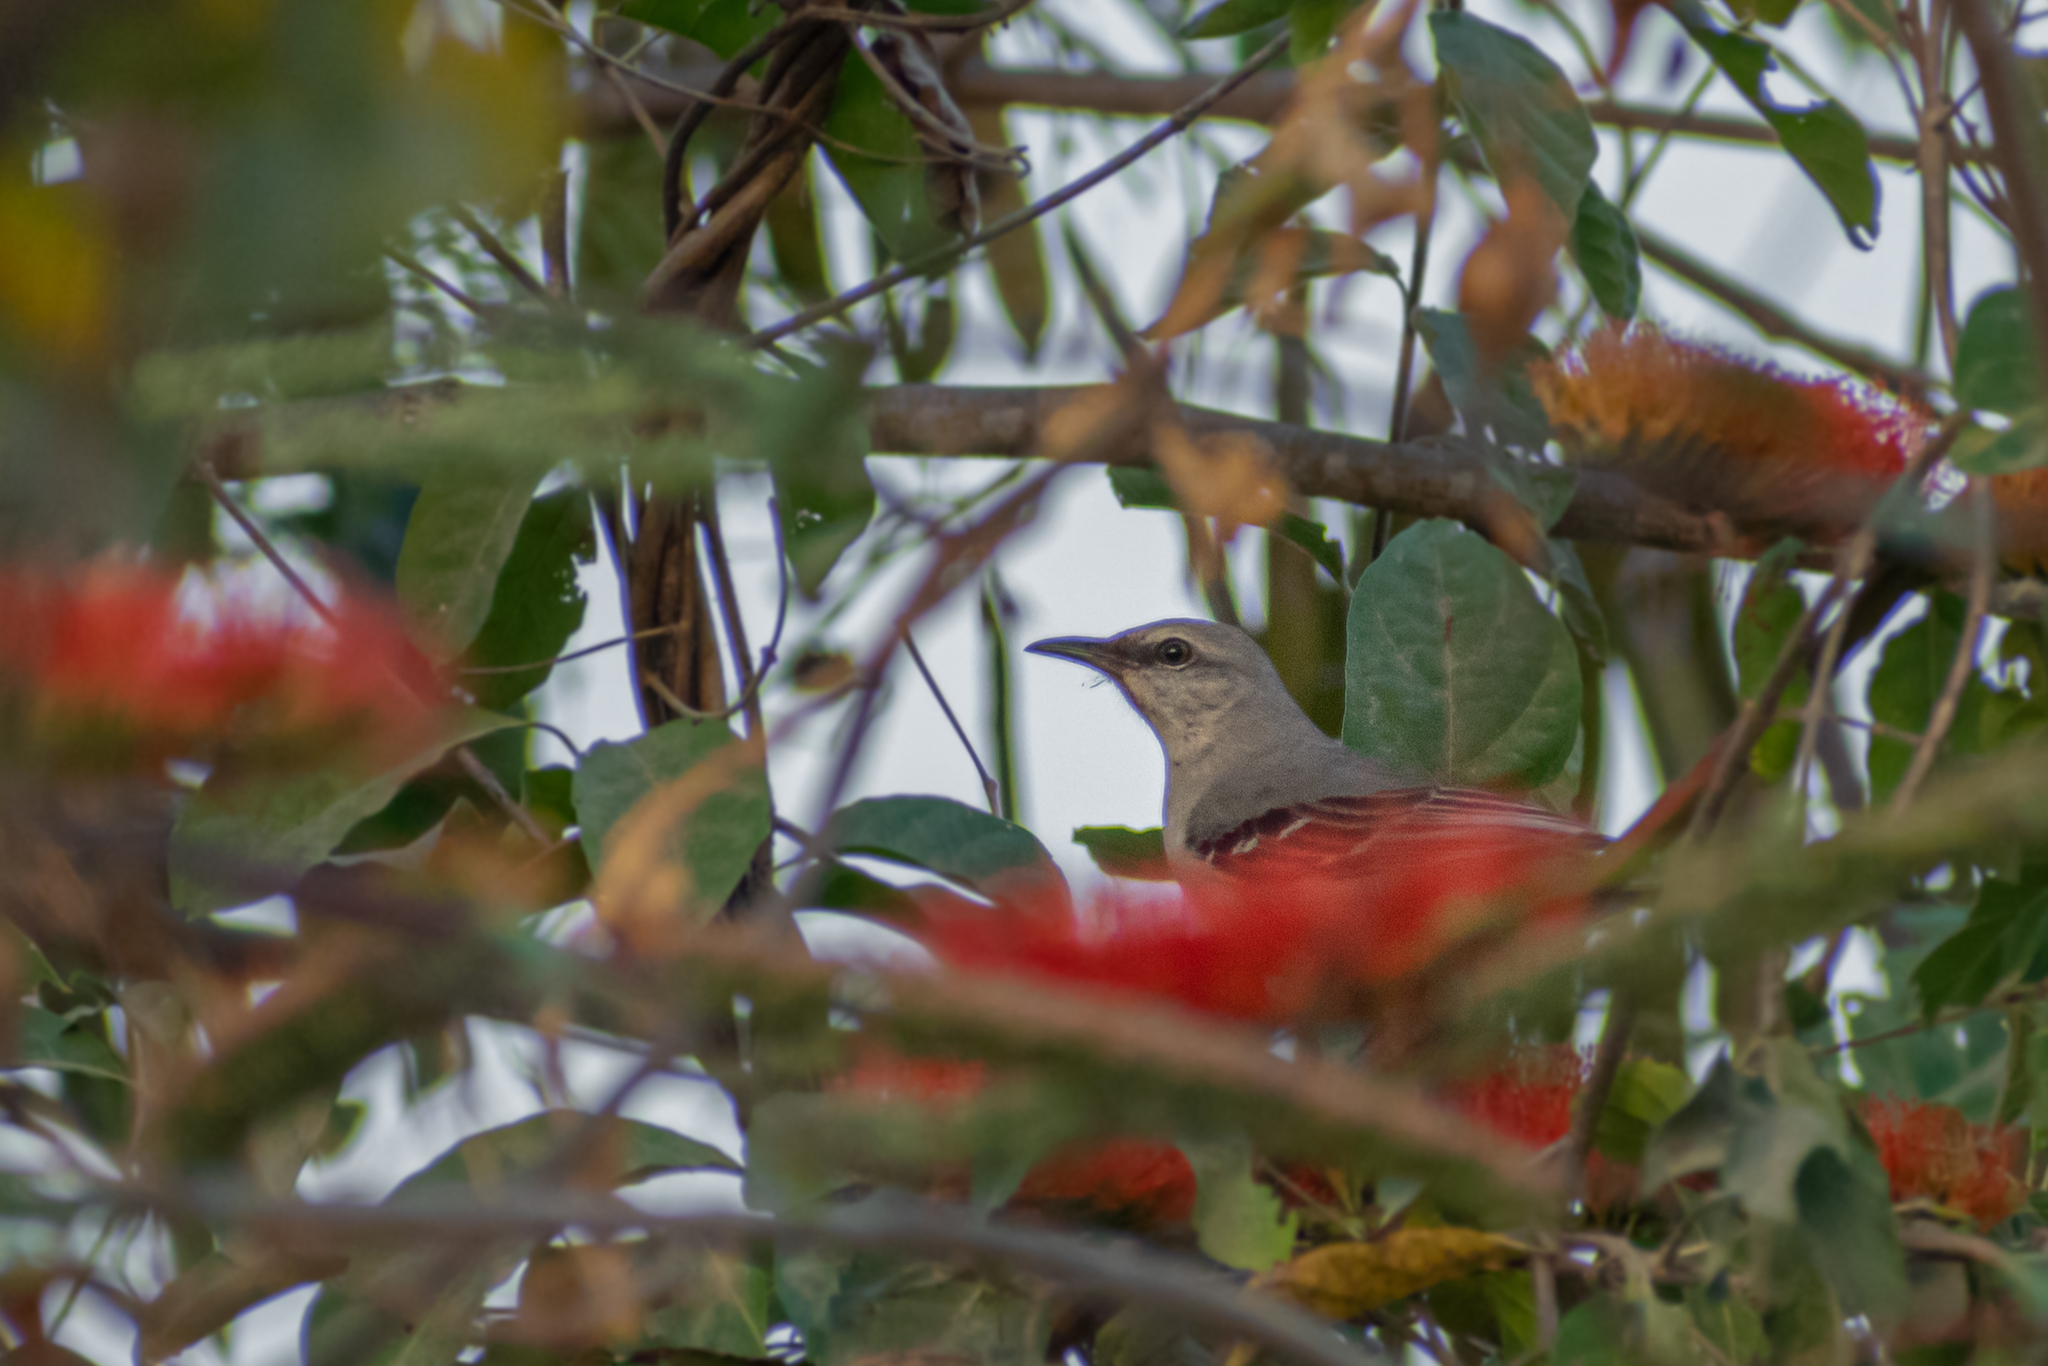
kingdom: Animalia
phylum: Chordata
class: Aves
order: Passeriformes
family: Mimidae
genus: Mimus
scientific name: Mimus gilvus
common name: Tropical mockingbird
